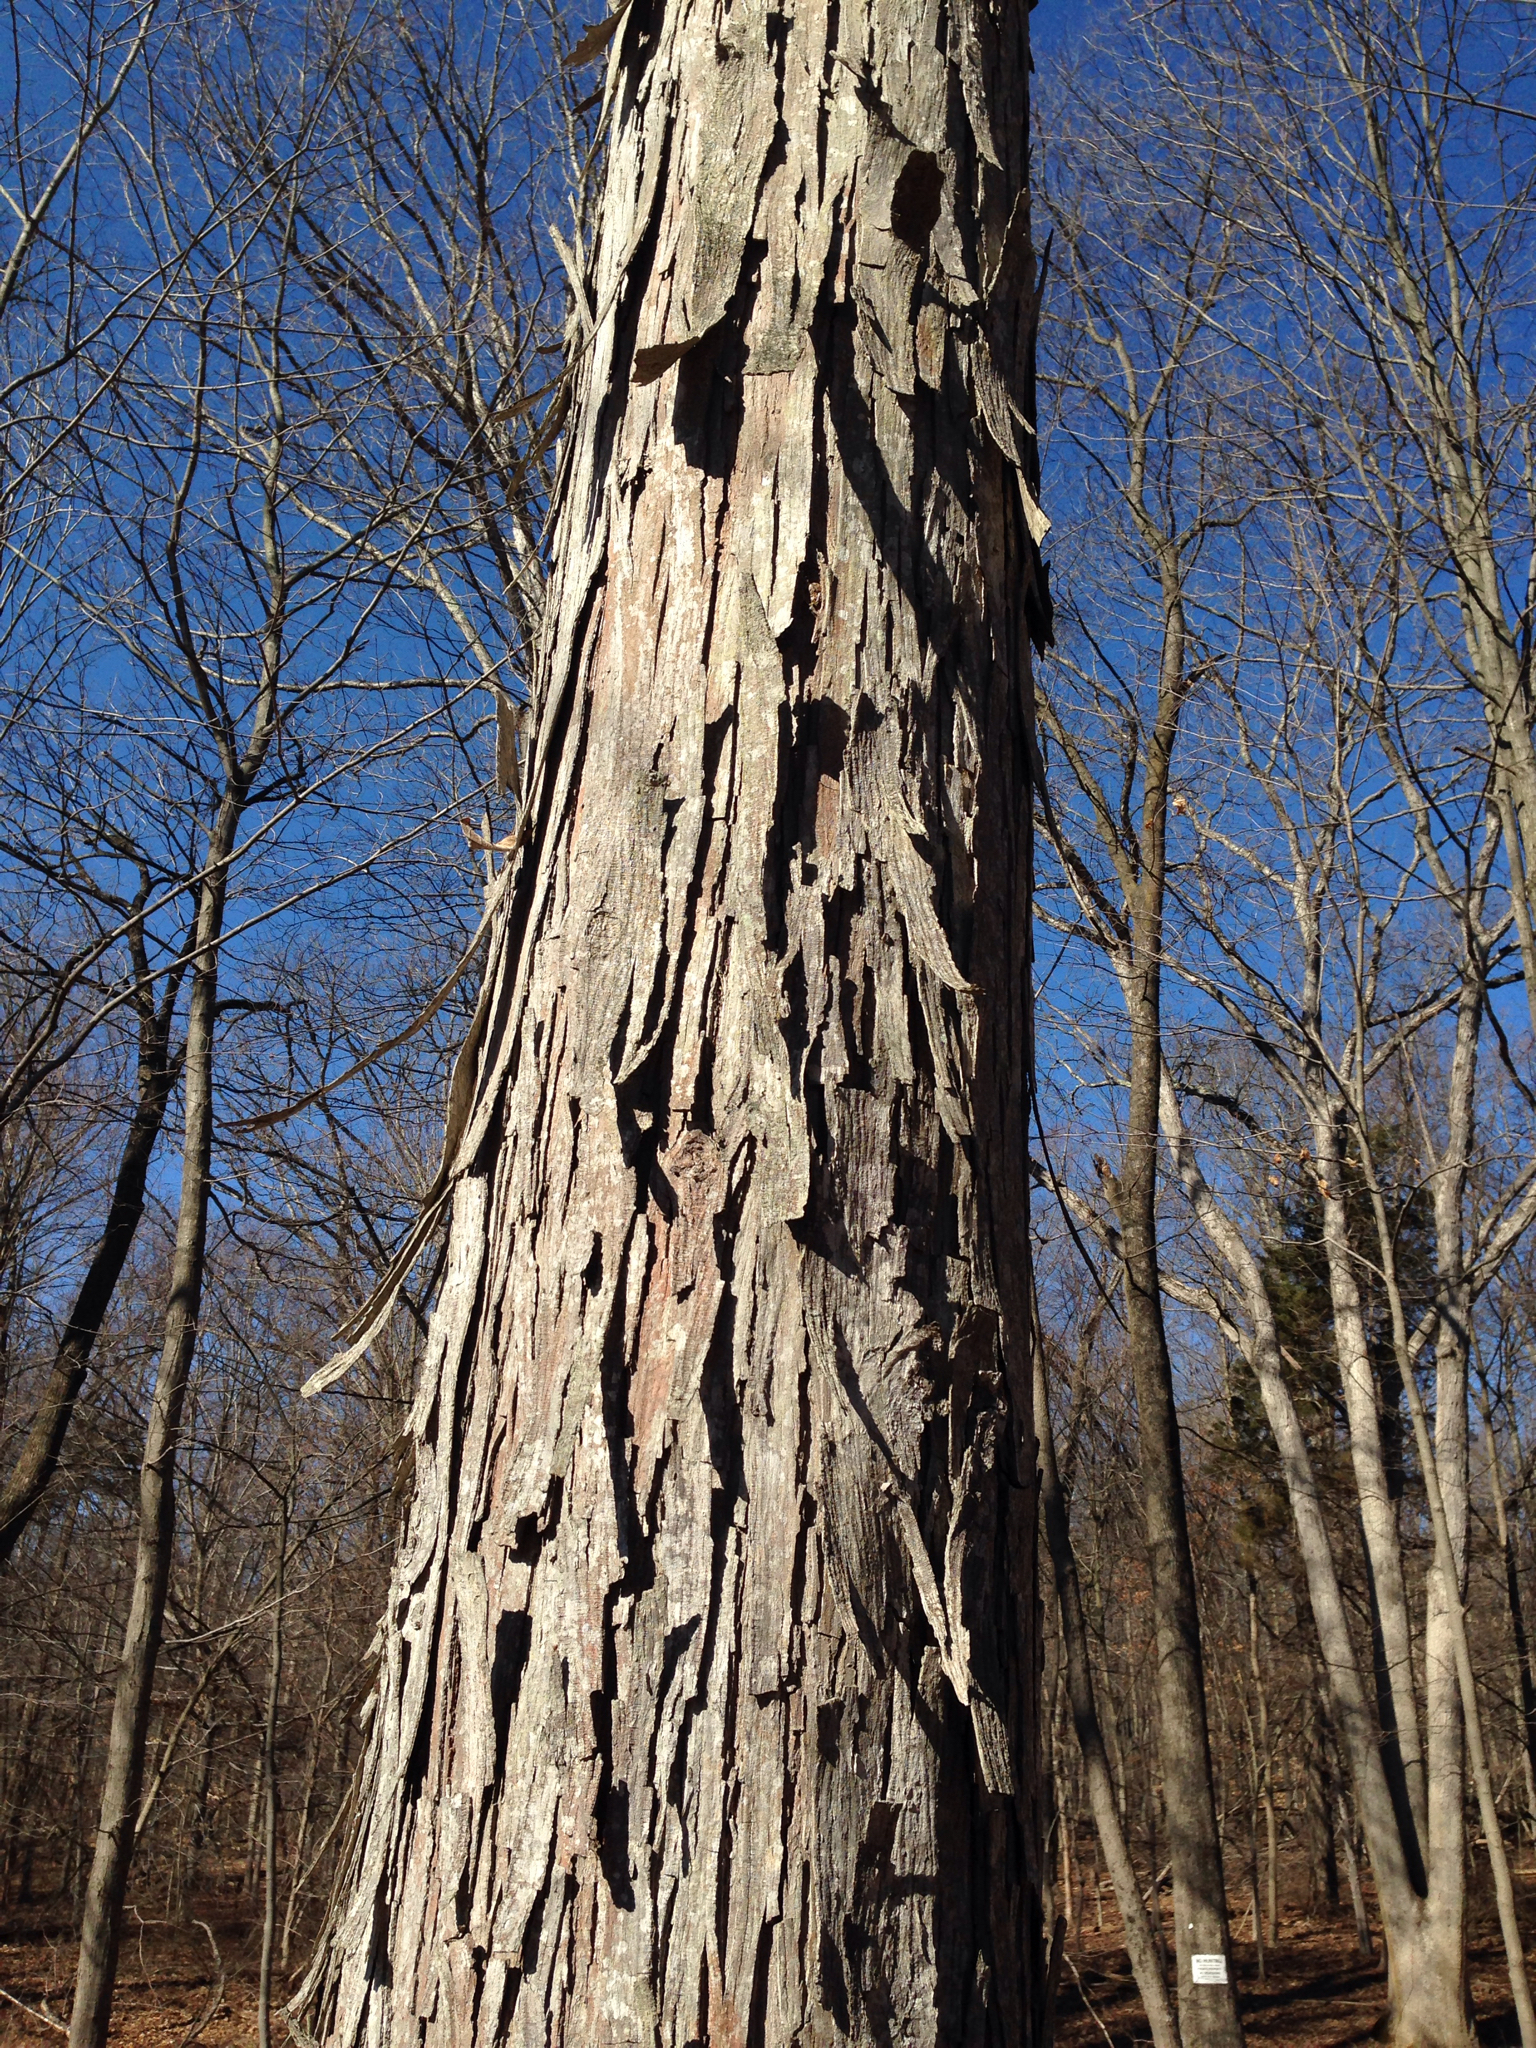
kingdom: Plantae
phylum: Tracheophyta
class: Magnoliopsida
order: Fagales
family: Juglandaceae
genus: Carya
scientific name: Carya ovata
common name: Shagbark hickory
